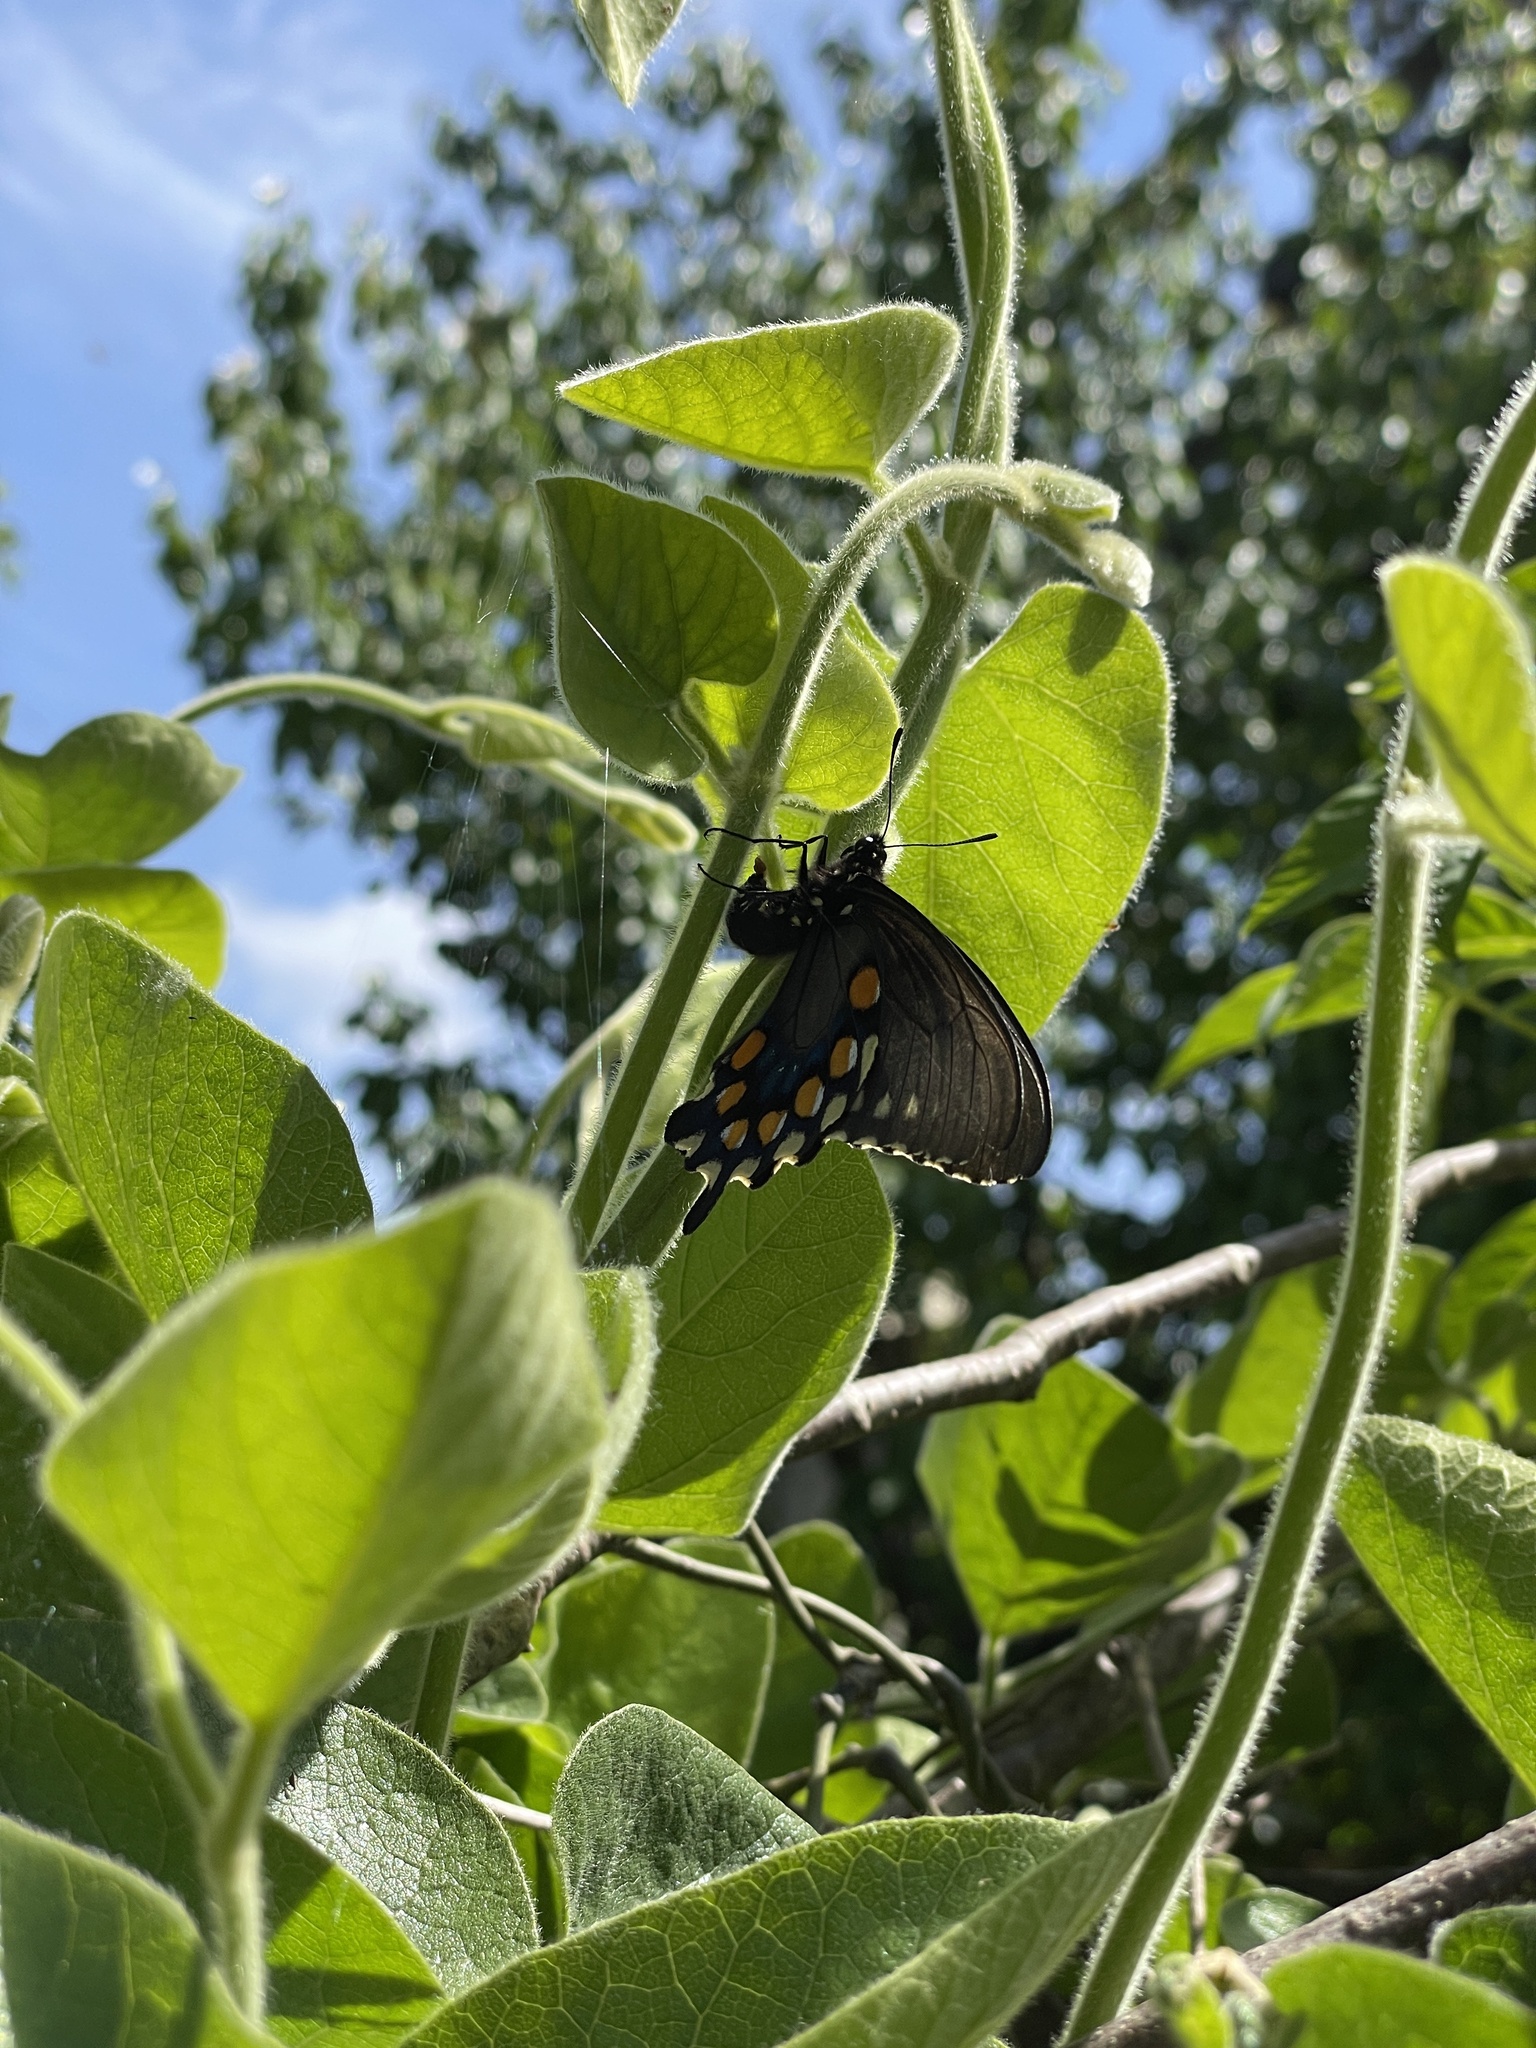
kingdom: Animalia
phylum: Arthropoda
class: Insecta
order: Lepidoptera
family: Papilionidae
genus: Battus
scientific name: Battus philenor
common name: Pipevine swallowtail
